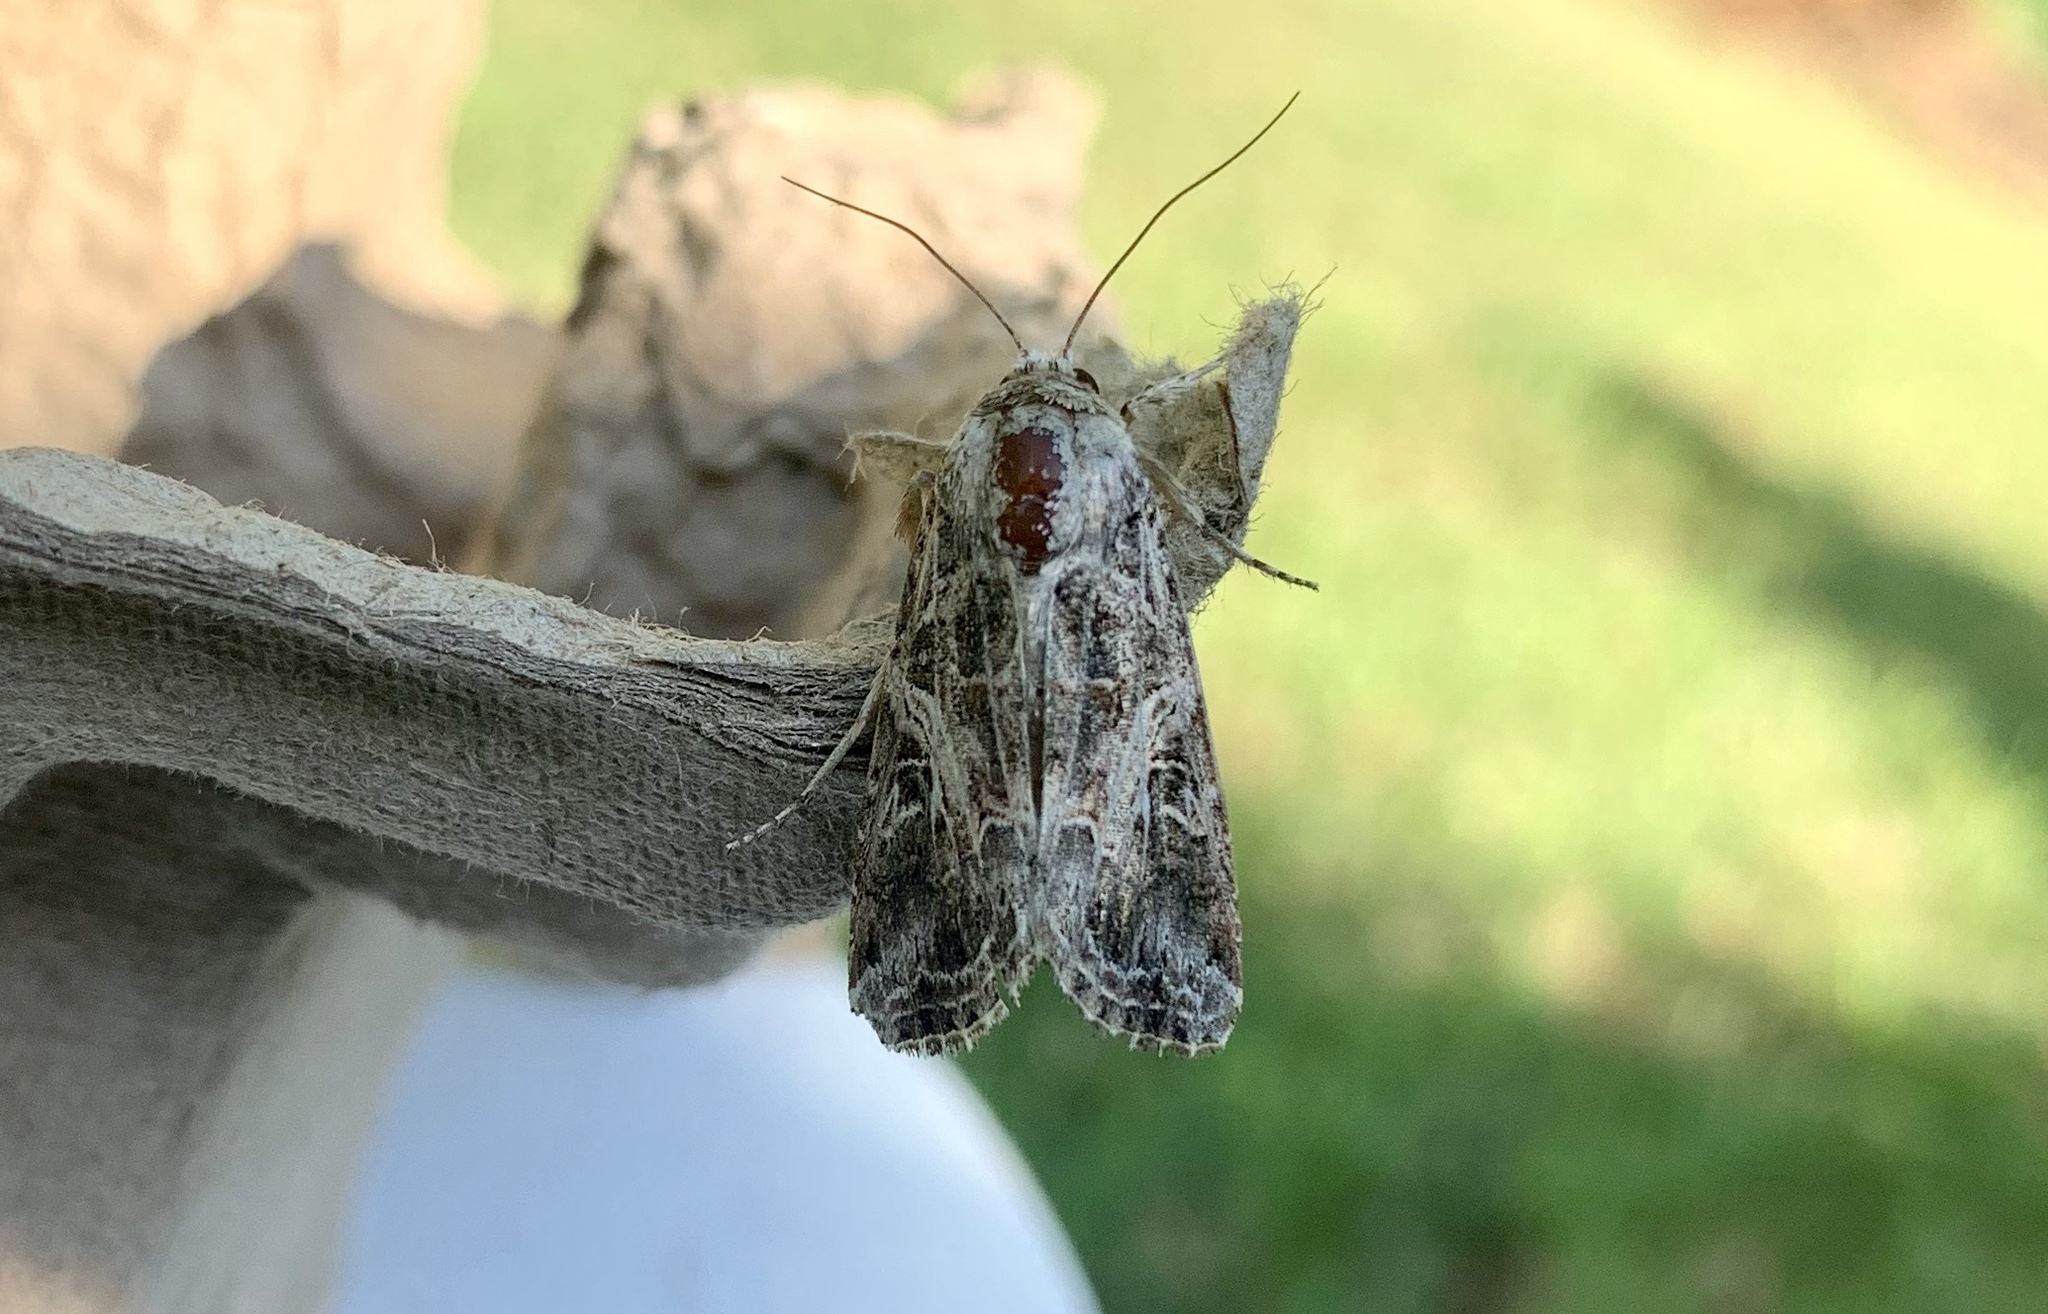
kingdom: Animalia
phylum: Arthropoda
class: Insecta
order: Lepidoptera
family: Noctuidae
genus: Spodoptera
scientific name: Spodoptera ornithogalli
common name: Yellow-striped armyworm
